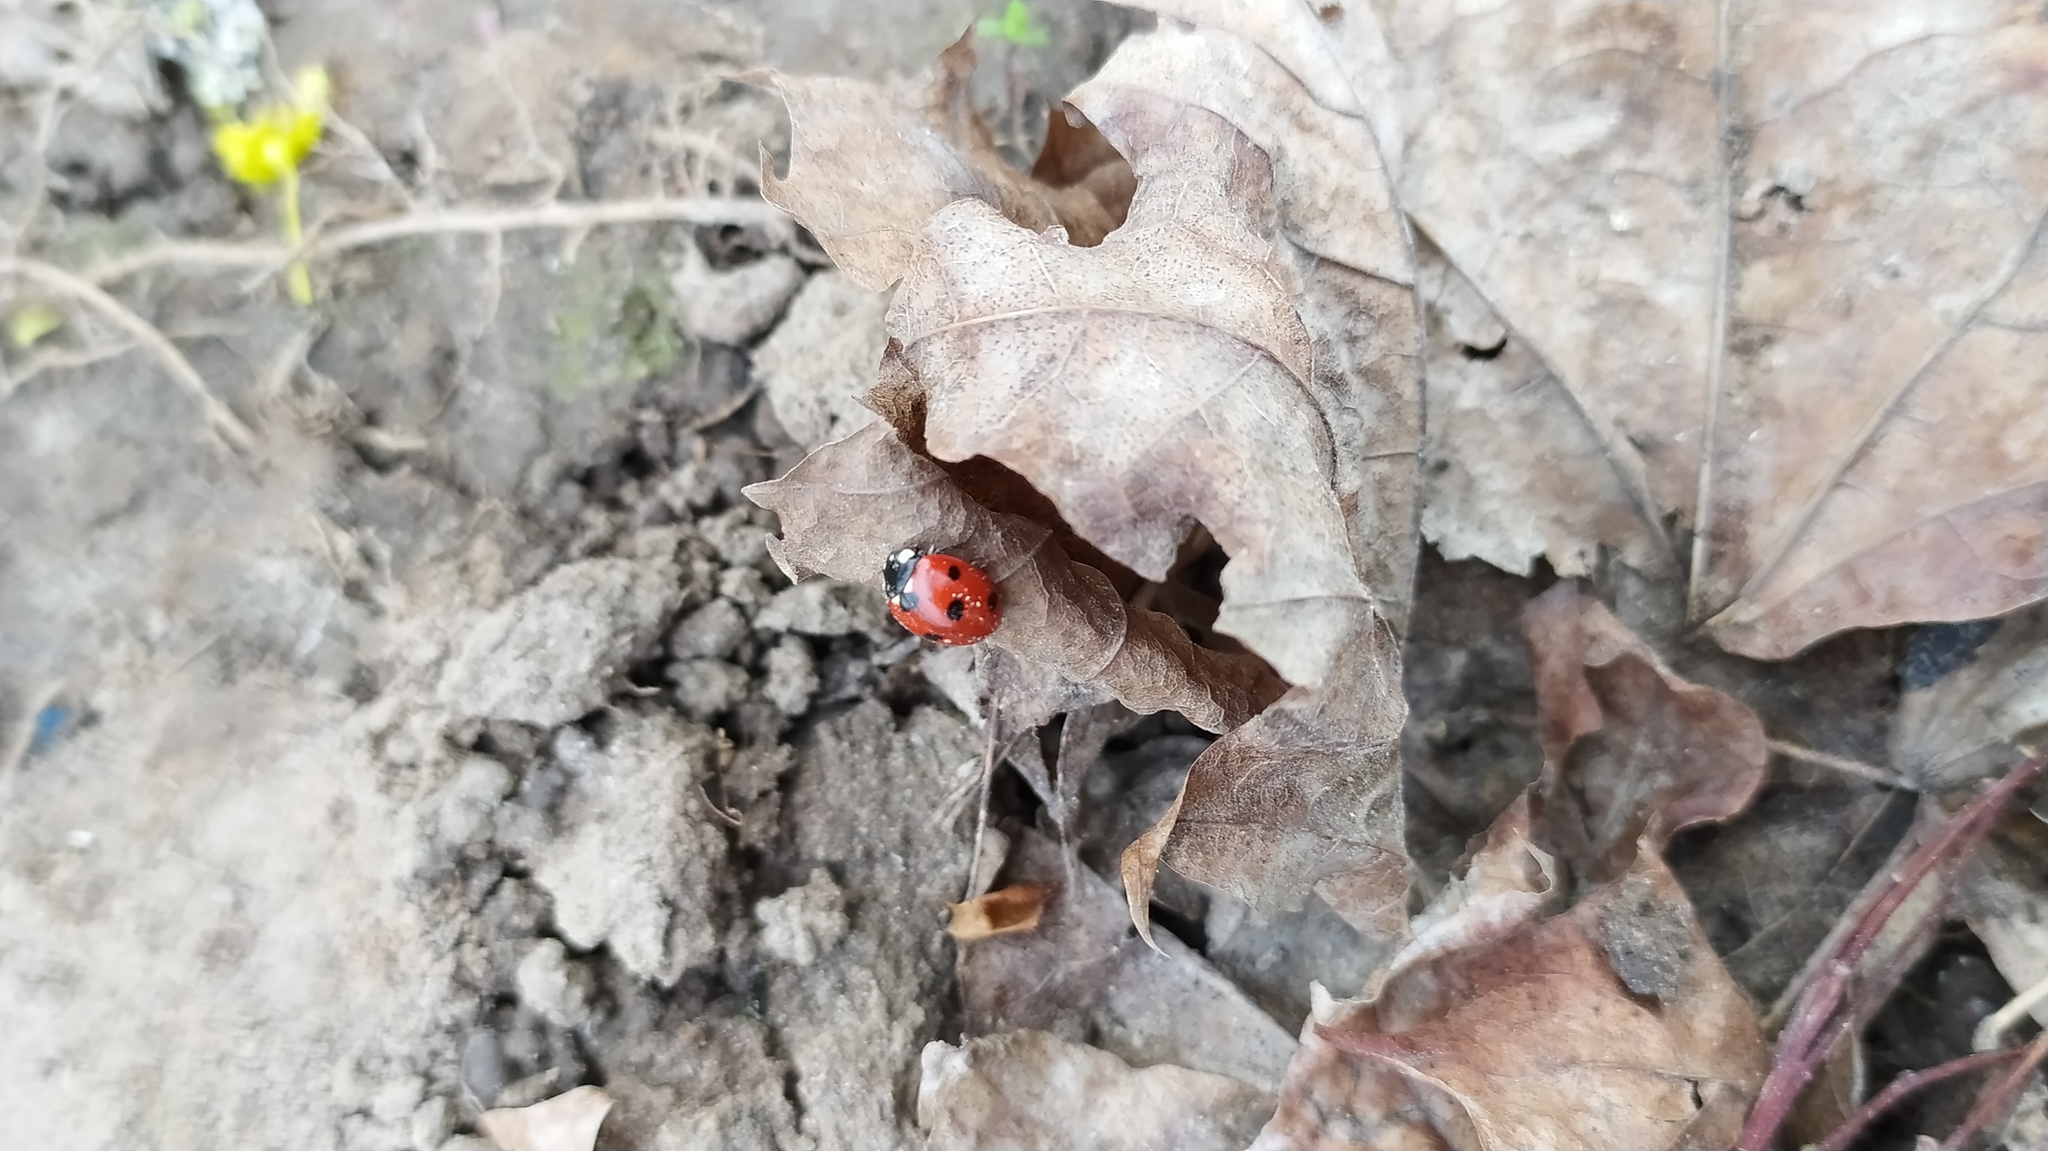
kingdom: Animalia
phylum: Arthropoda
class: Insecta
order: Coleoptera
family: Coccinellidae
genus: Coccinella
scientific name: Coccinella septempunctata
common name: Sevenspotted lady beetle
